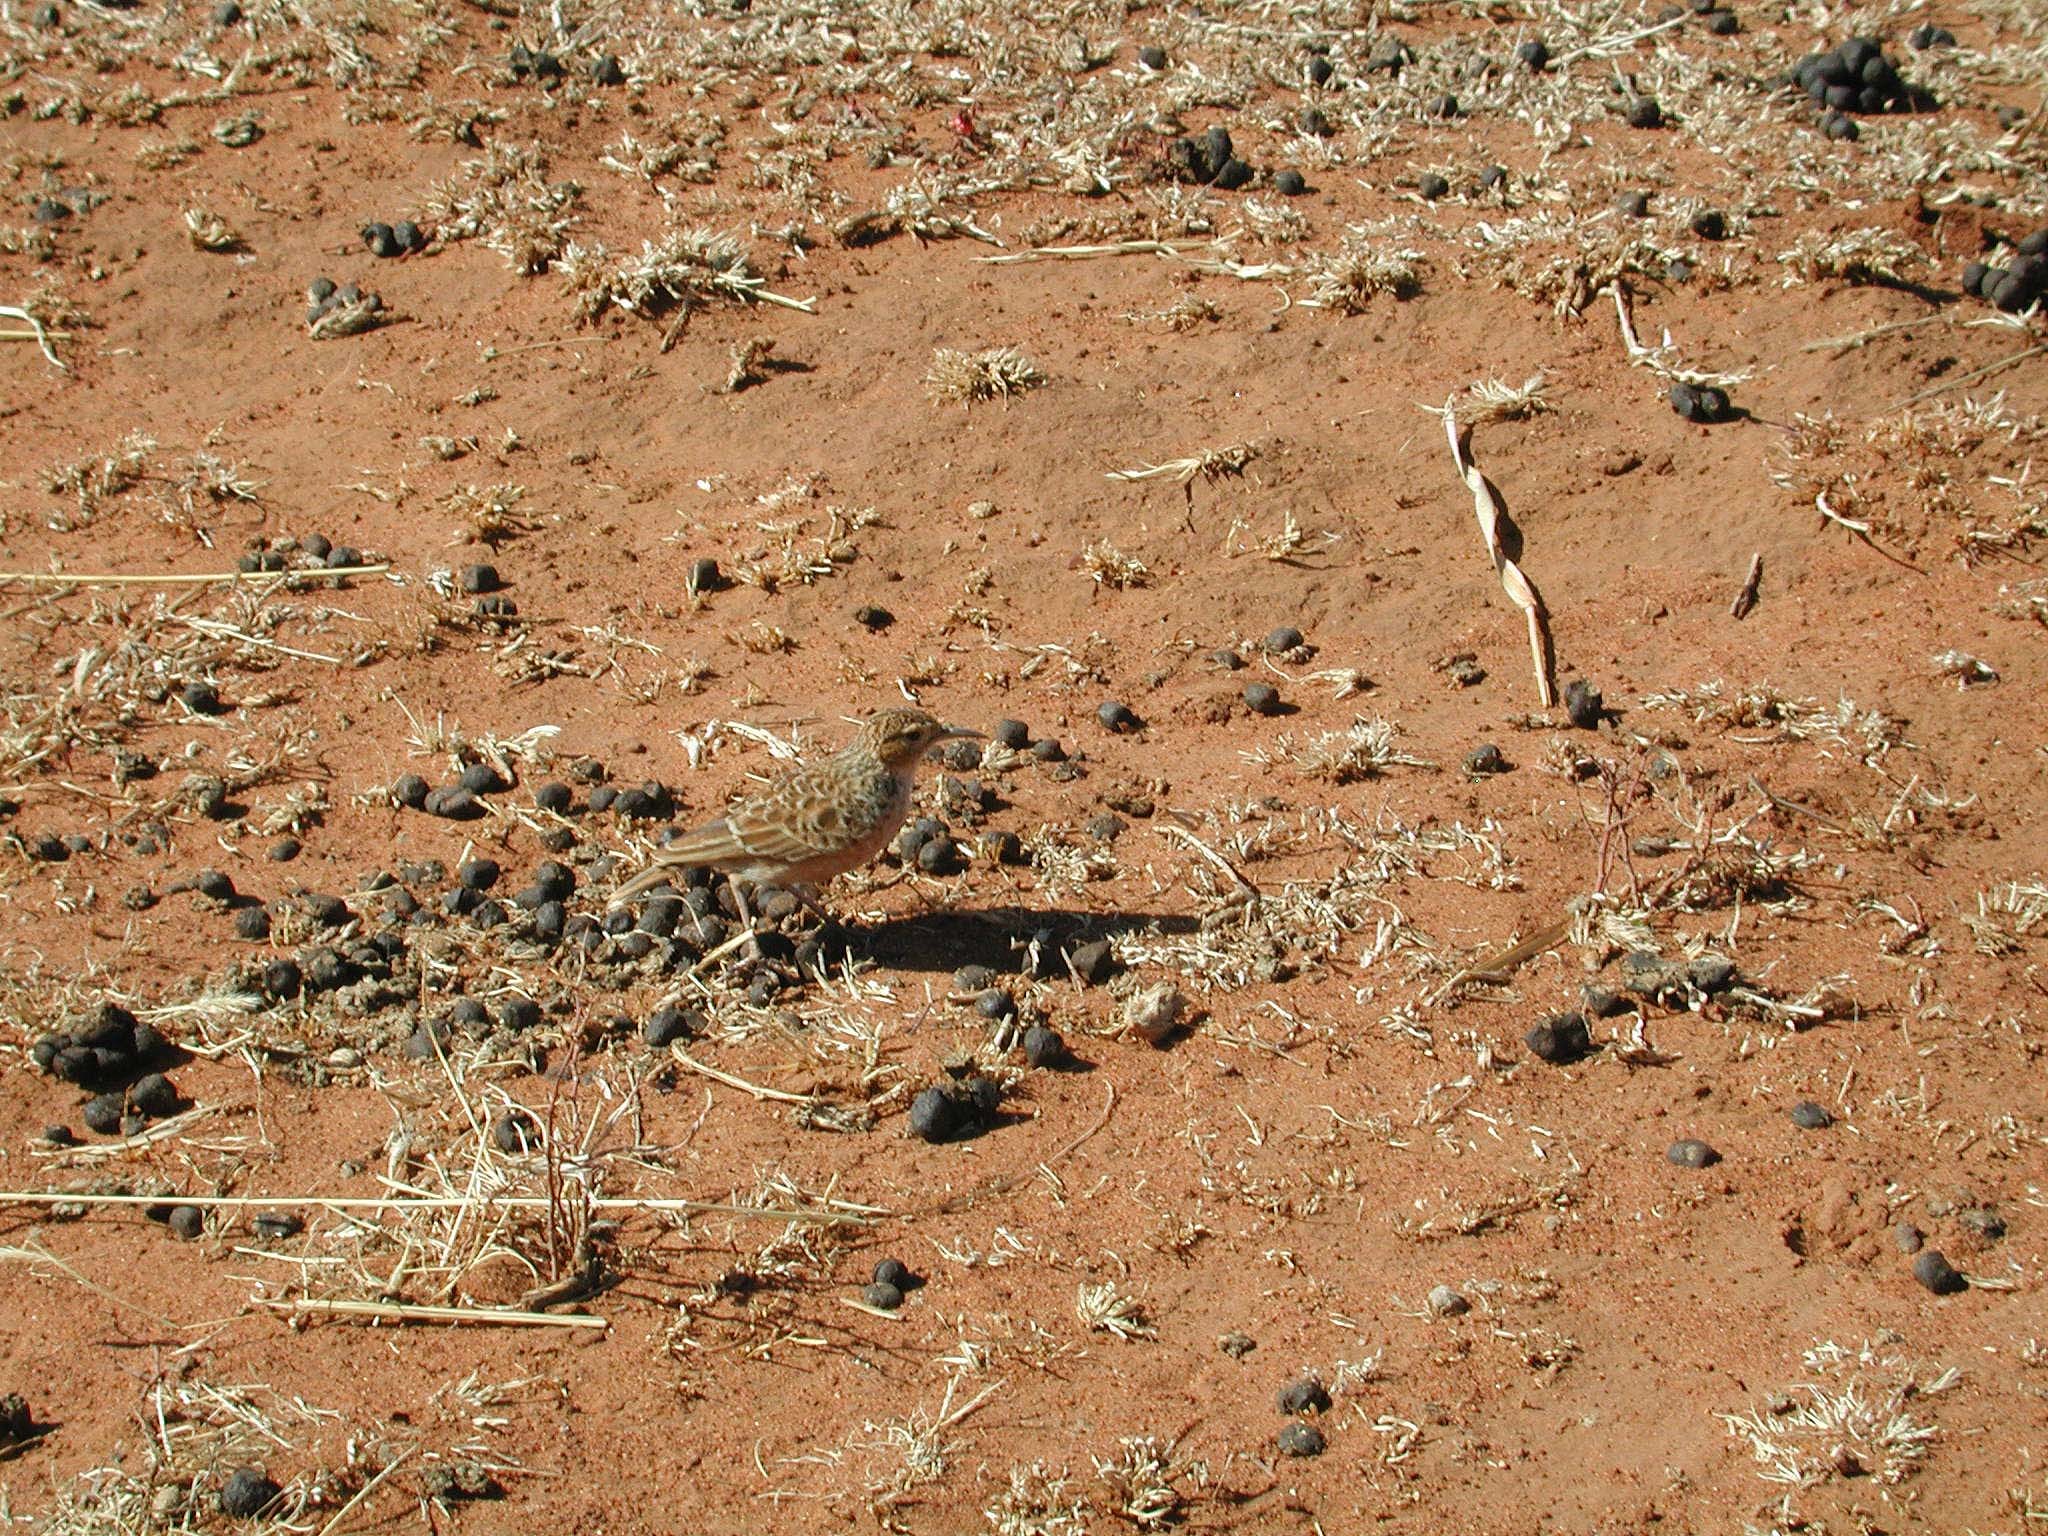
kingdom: Animalia
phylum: Chordata
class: Aves
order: Passeriformes
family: Alaudidae
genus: Chersomanes
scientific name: Chersomanes albofasciata
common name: Spike-heeled lark
